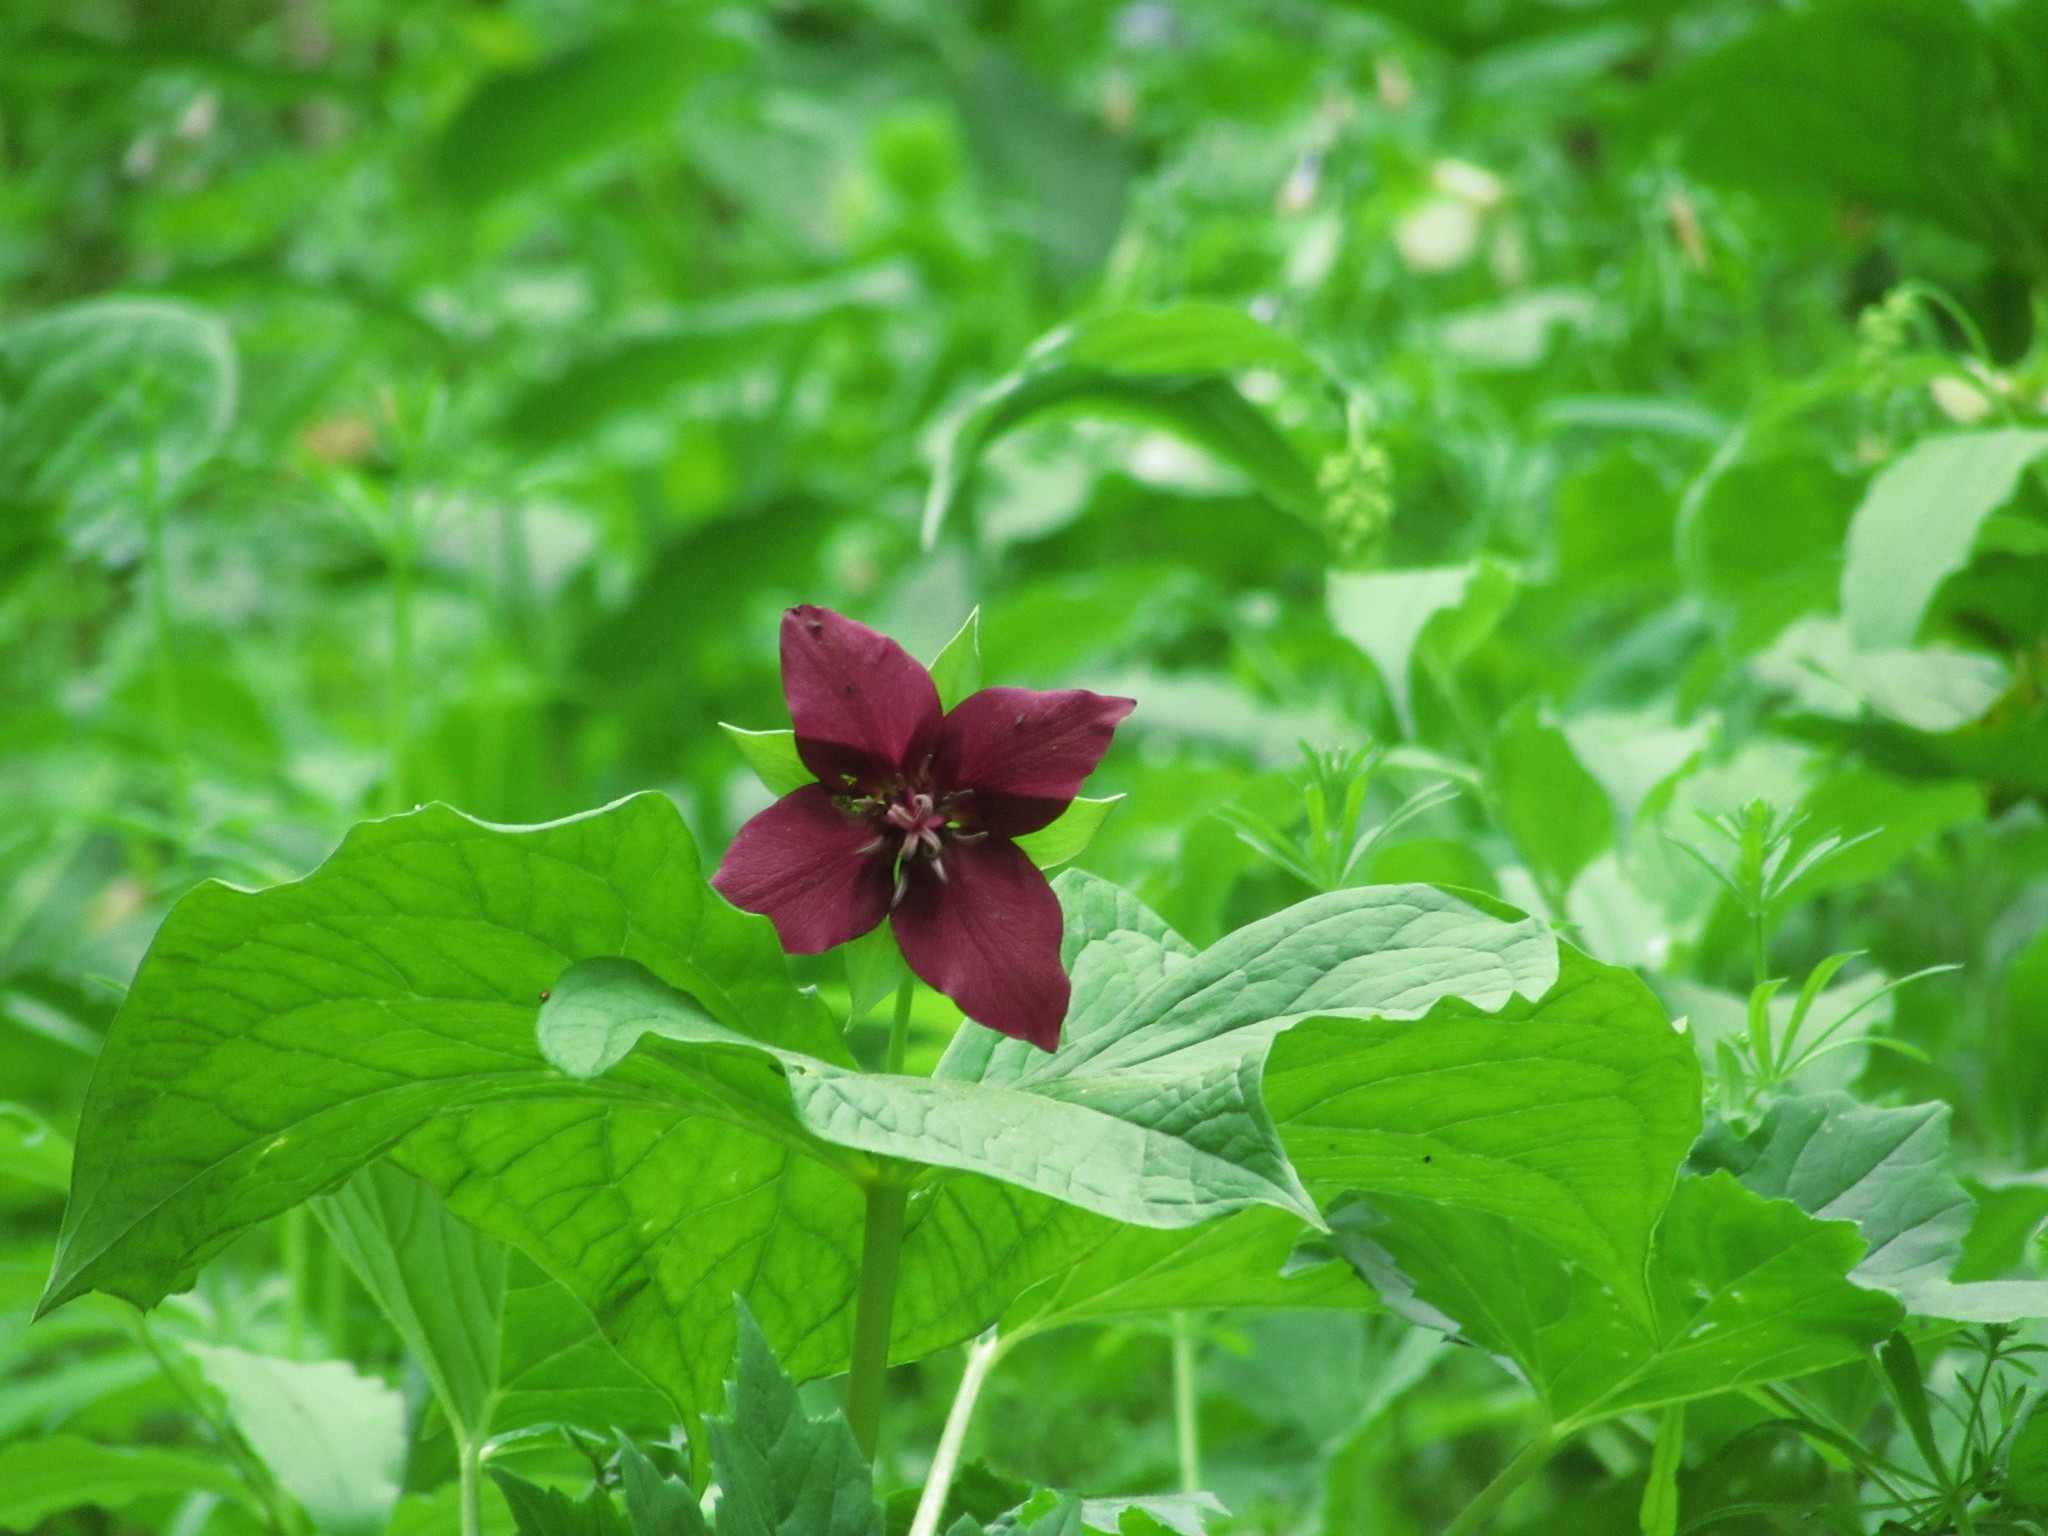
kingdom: Plantae
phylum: Tracheophyta
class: Liliopsida
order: Liliales
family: Melanthiaceae
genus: Trillium
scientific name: Trillium erectum
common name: Purple trillium
